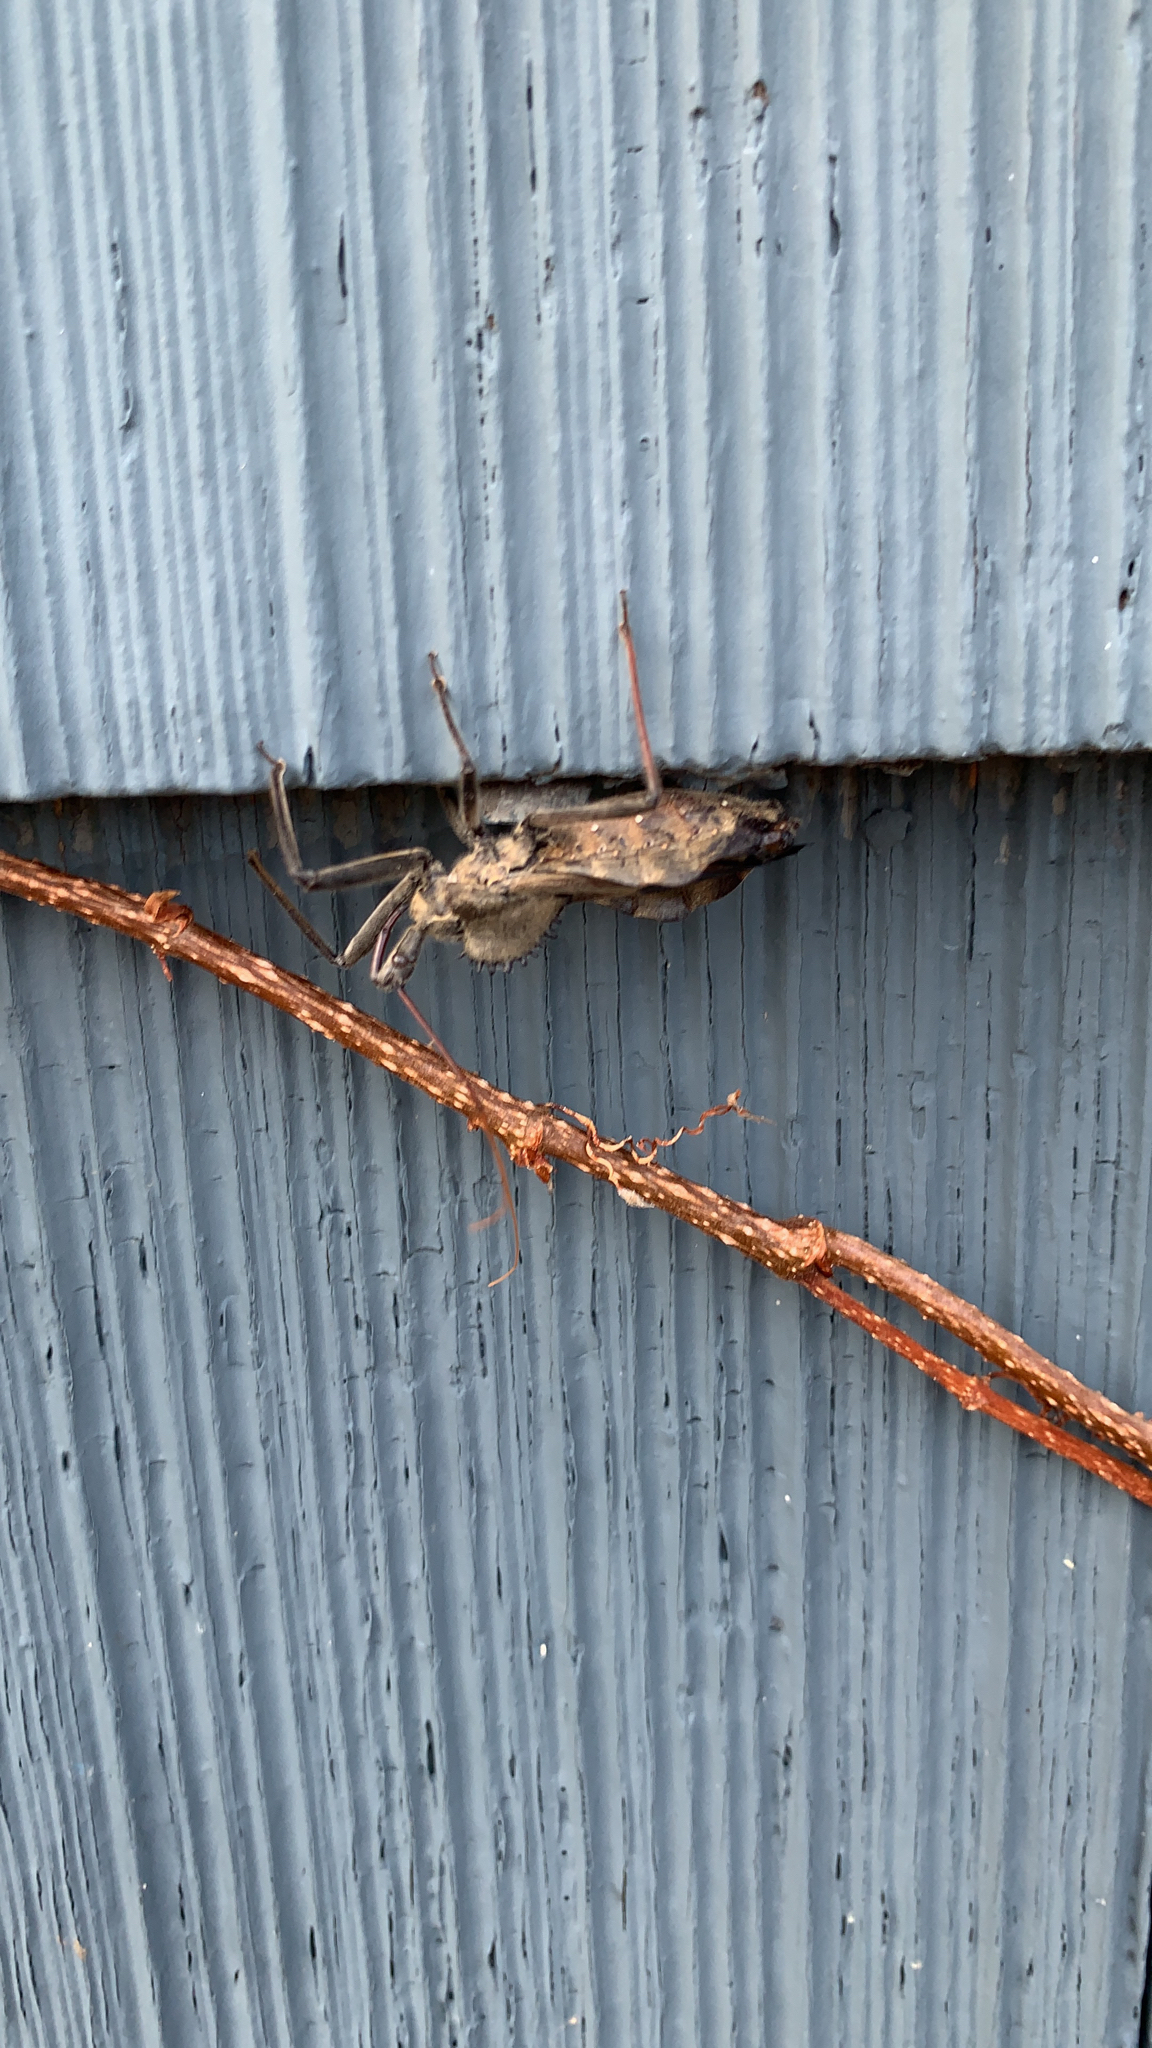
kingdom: Animalia
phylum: Arthropoda
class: Insecta
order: Hemiptera
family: Reduviidae
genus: Arilus
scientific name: Arilus cristatus
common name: North american wheel bug
